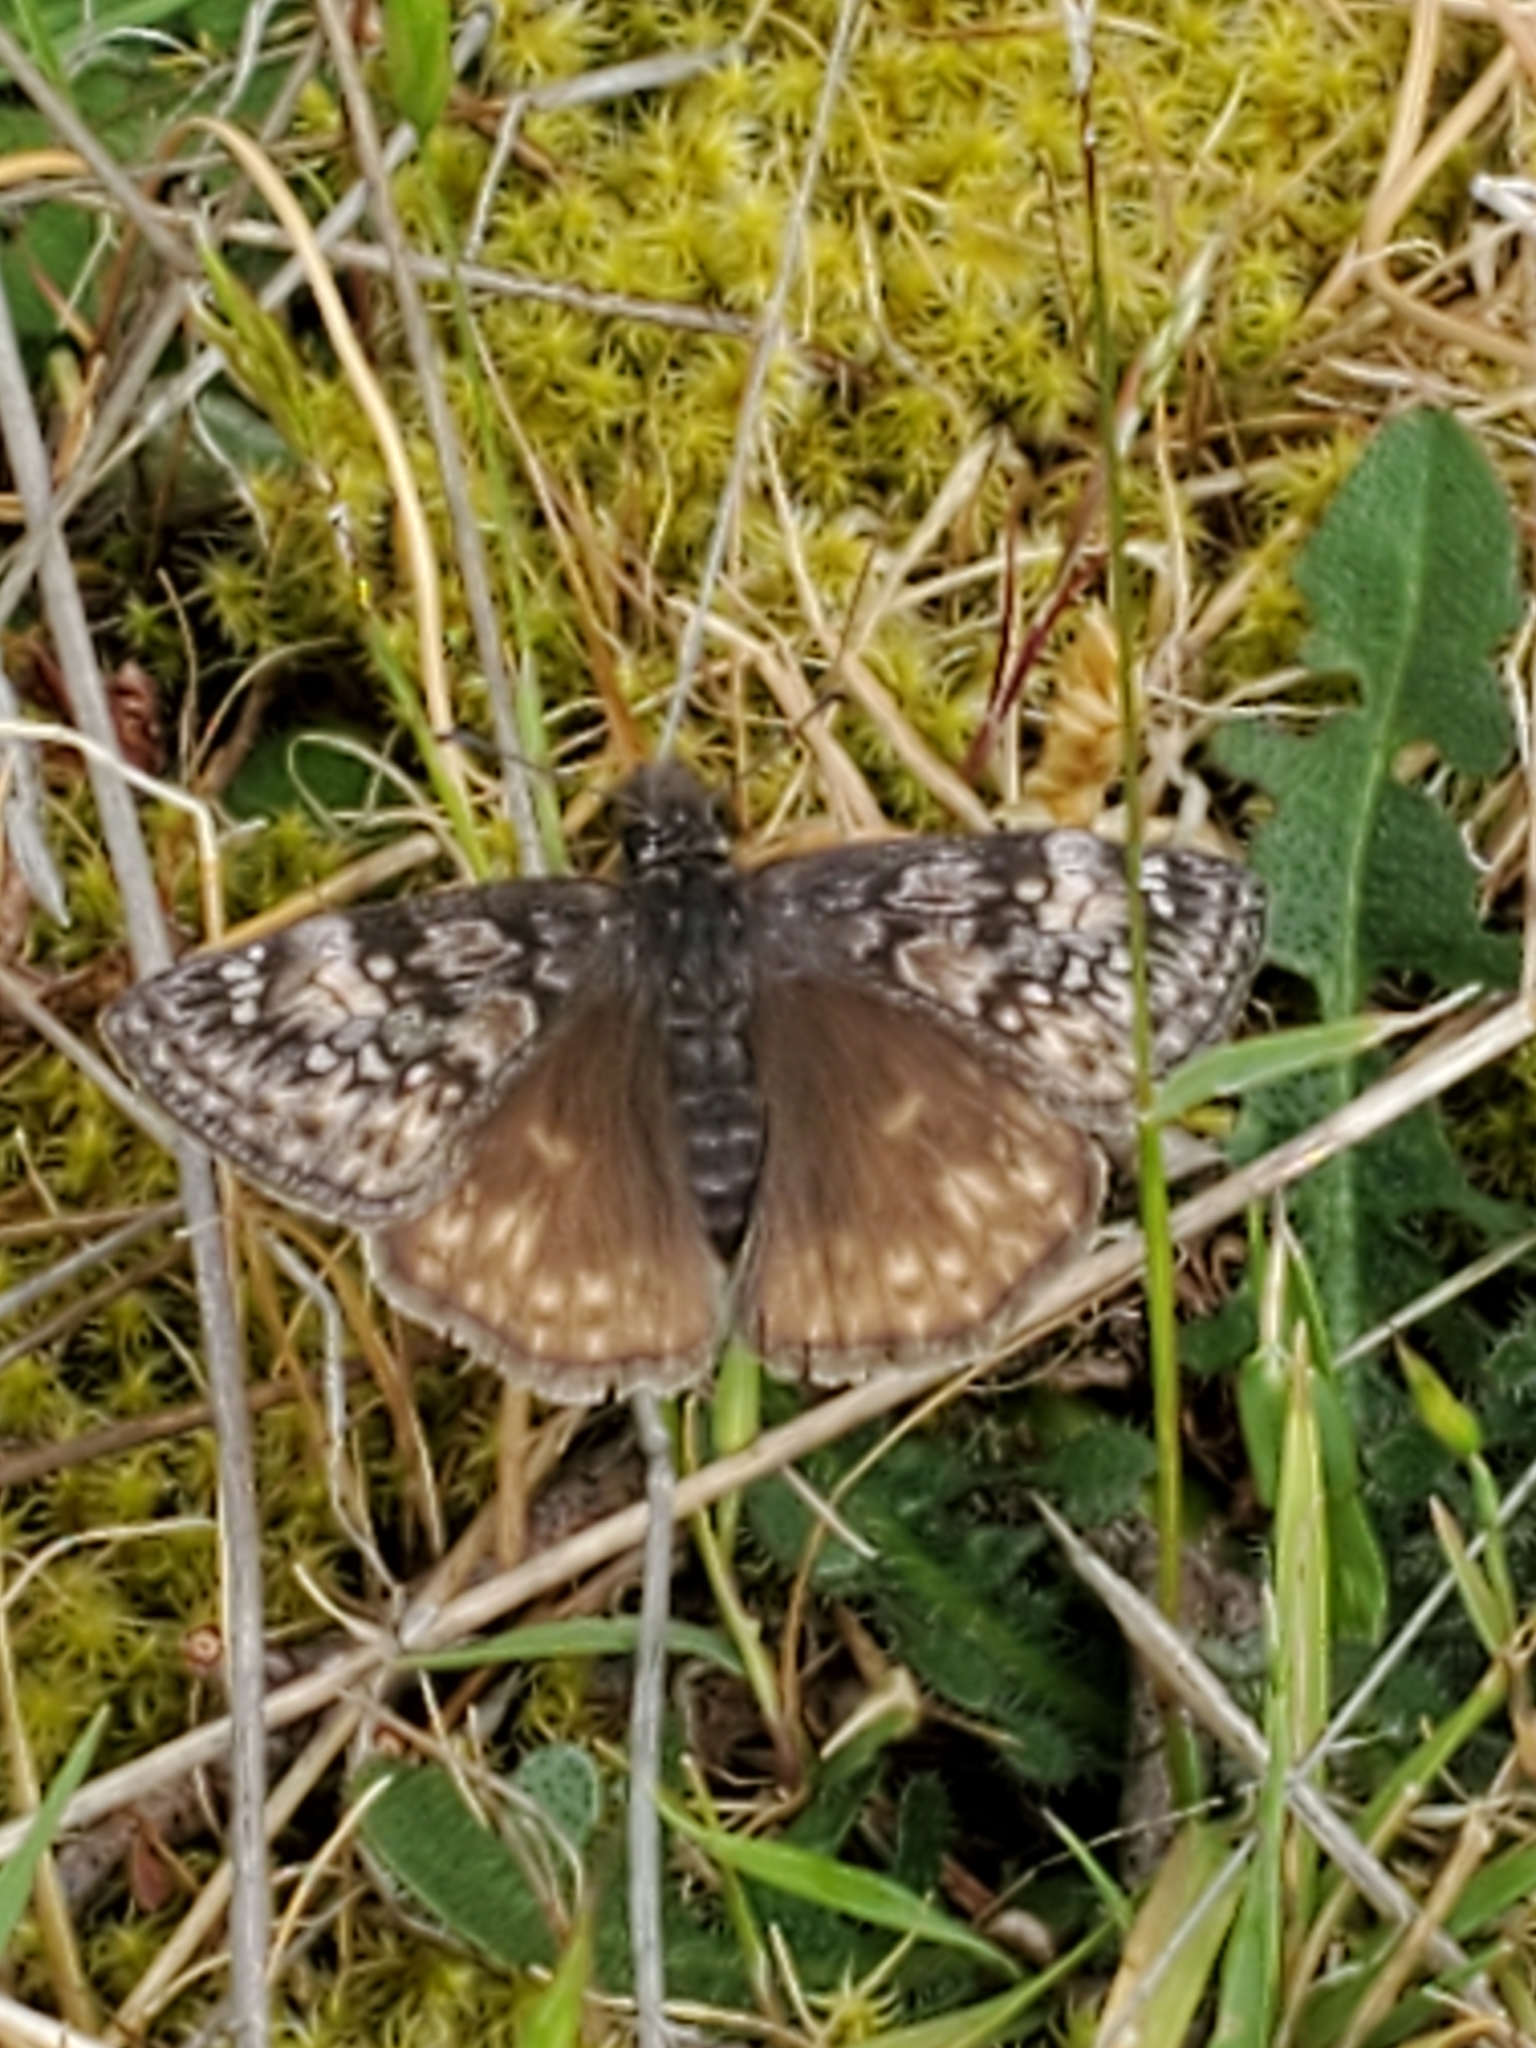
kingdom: Animalia
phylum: Arthropoda
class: Insecta
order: Lepidoptera
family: Hesperiidae
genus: Erynnis
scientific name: Erynnis propertius
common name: Propertius duskywing
